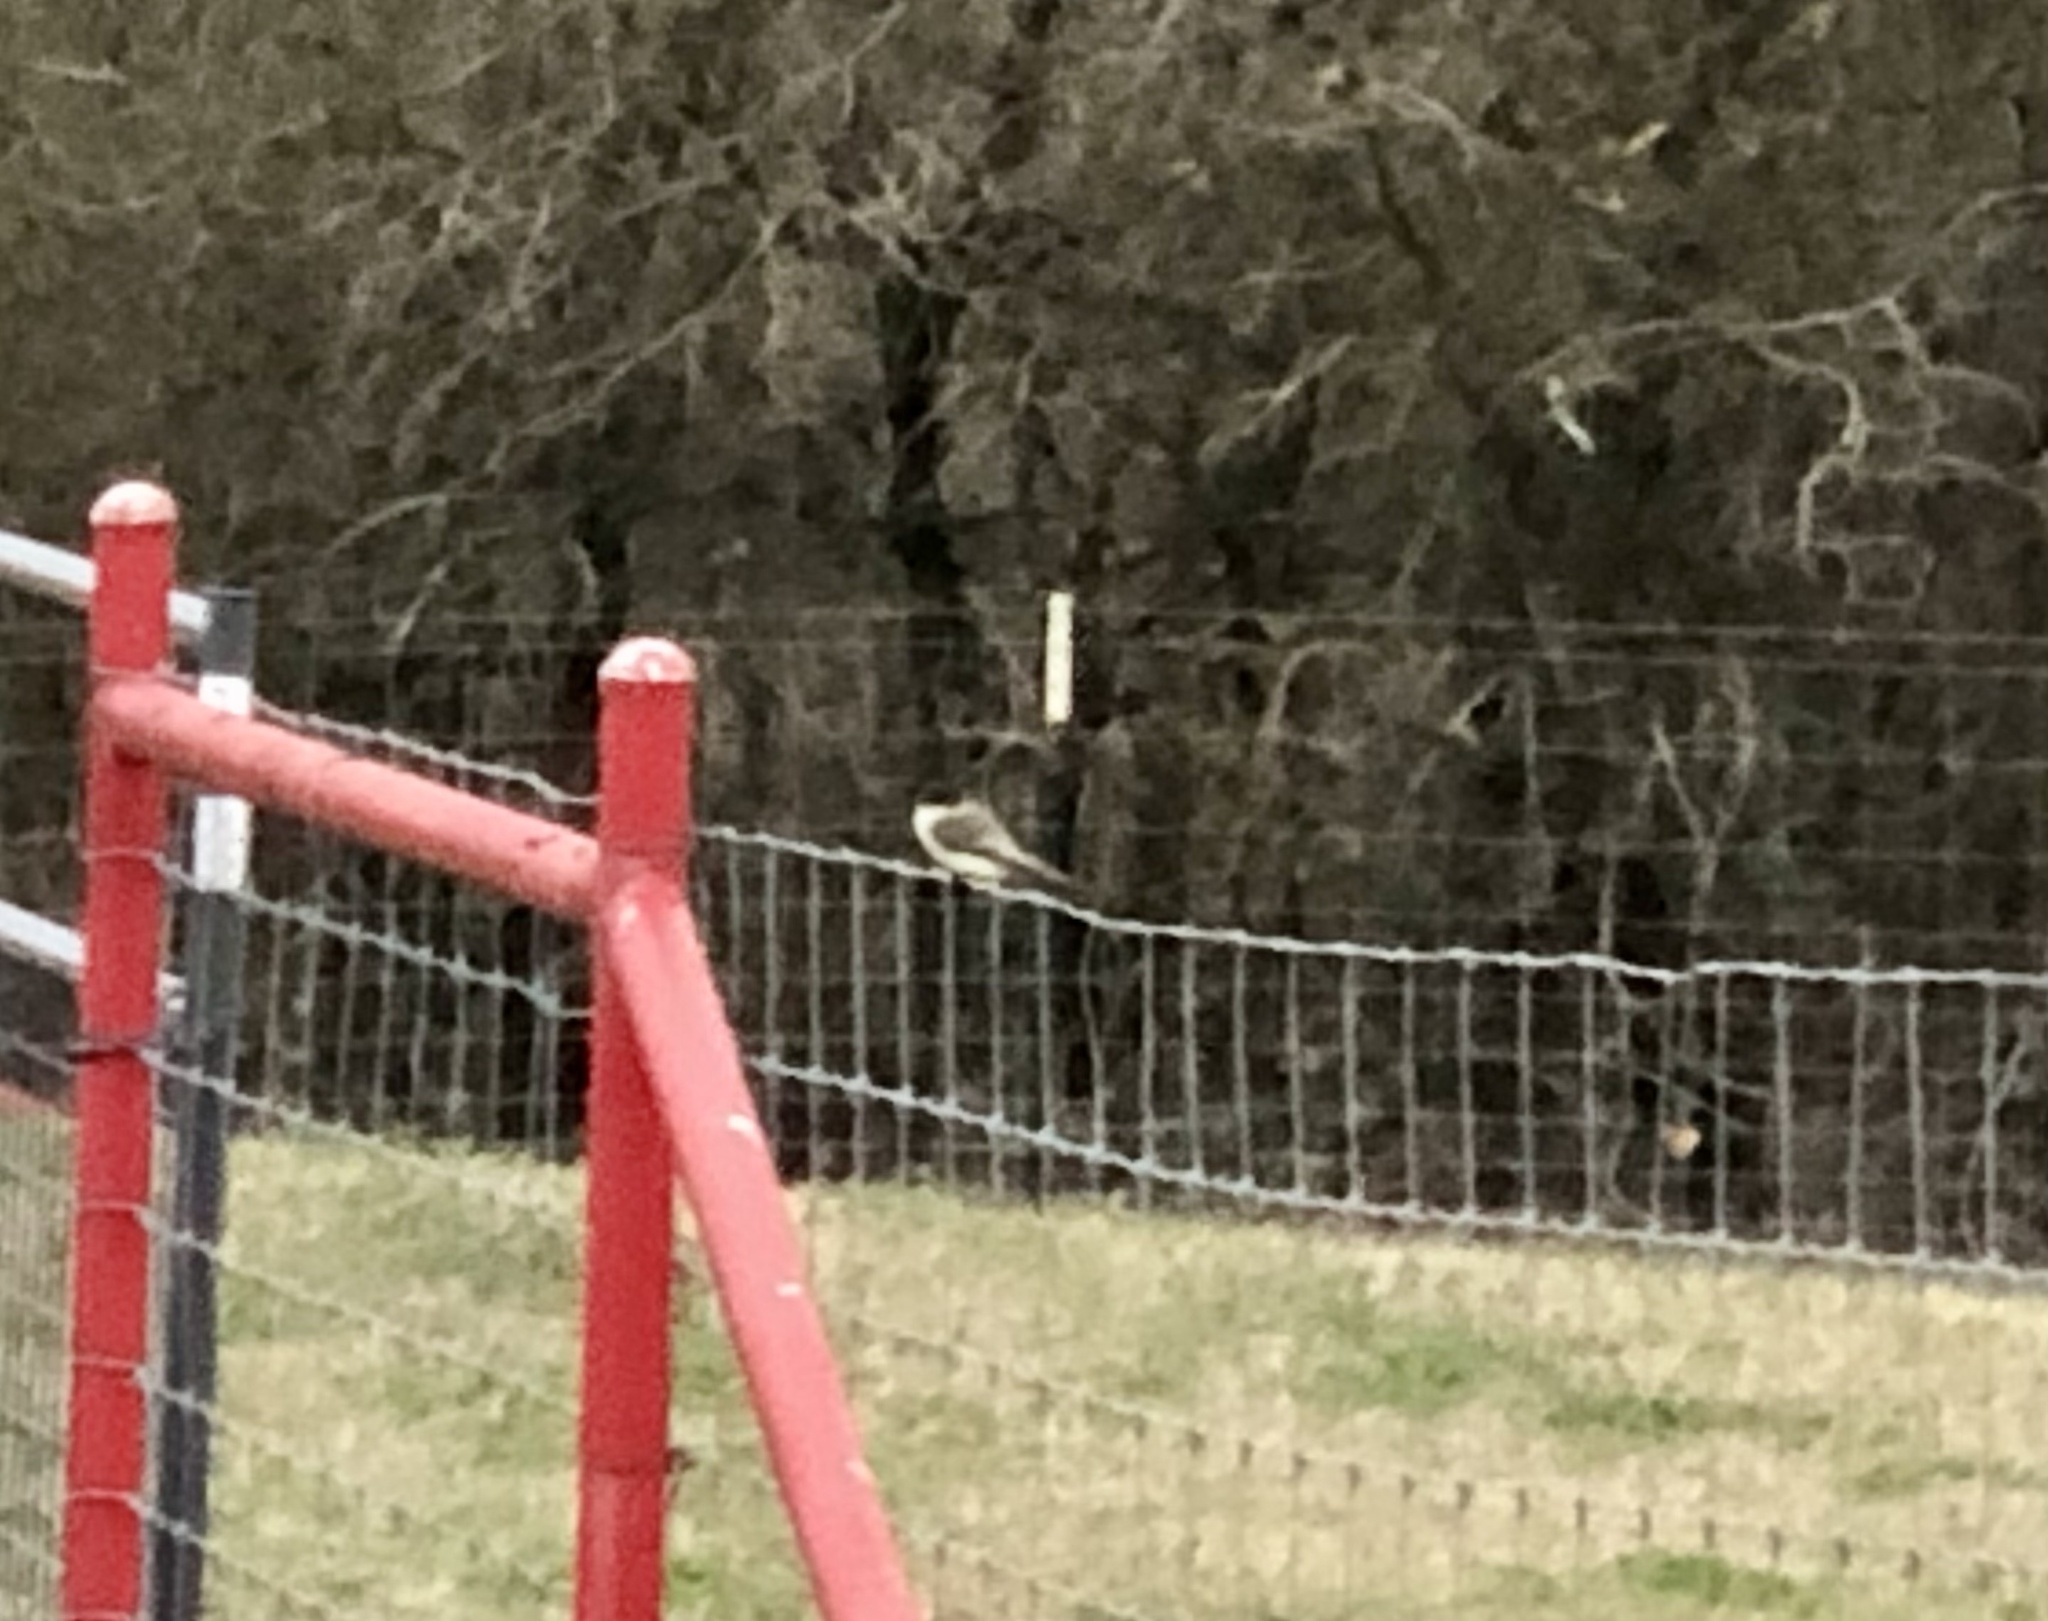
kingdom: Animalia
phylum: Chordata
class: Aves
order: Passeriformes
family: Tyrannidae
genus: Sayornis
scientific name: Sayornis phoebe
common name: Eastern phoebe
